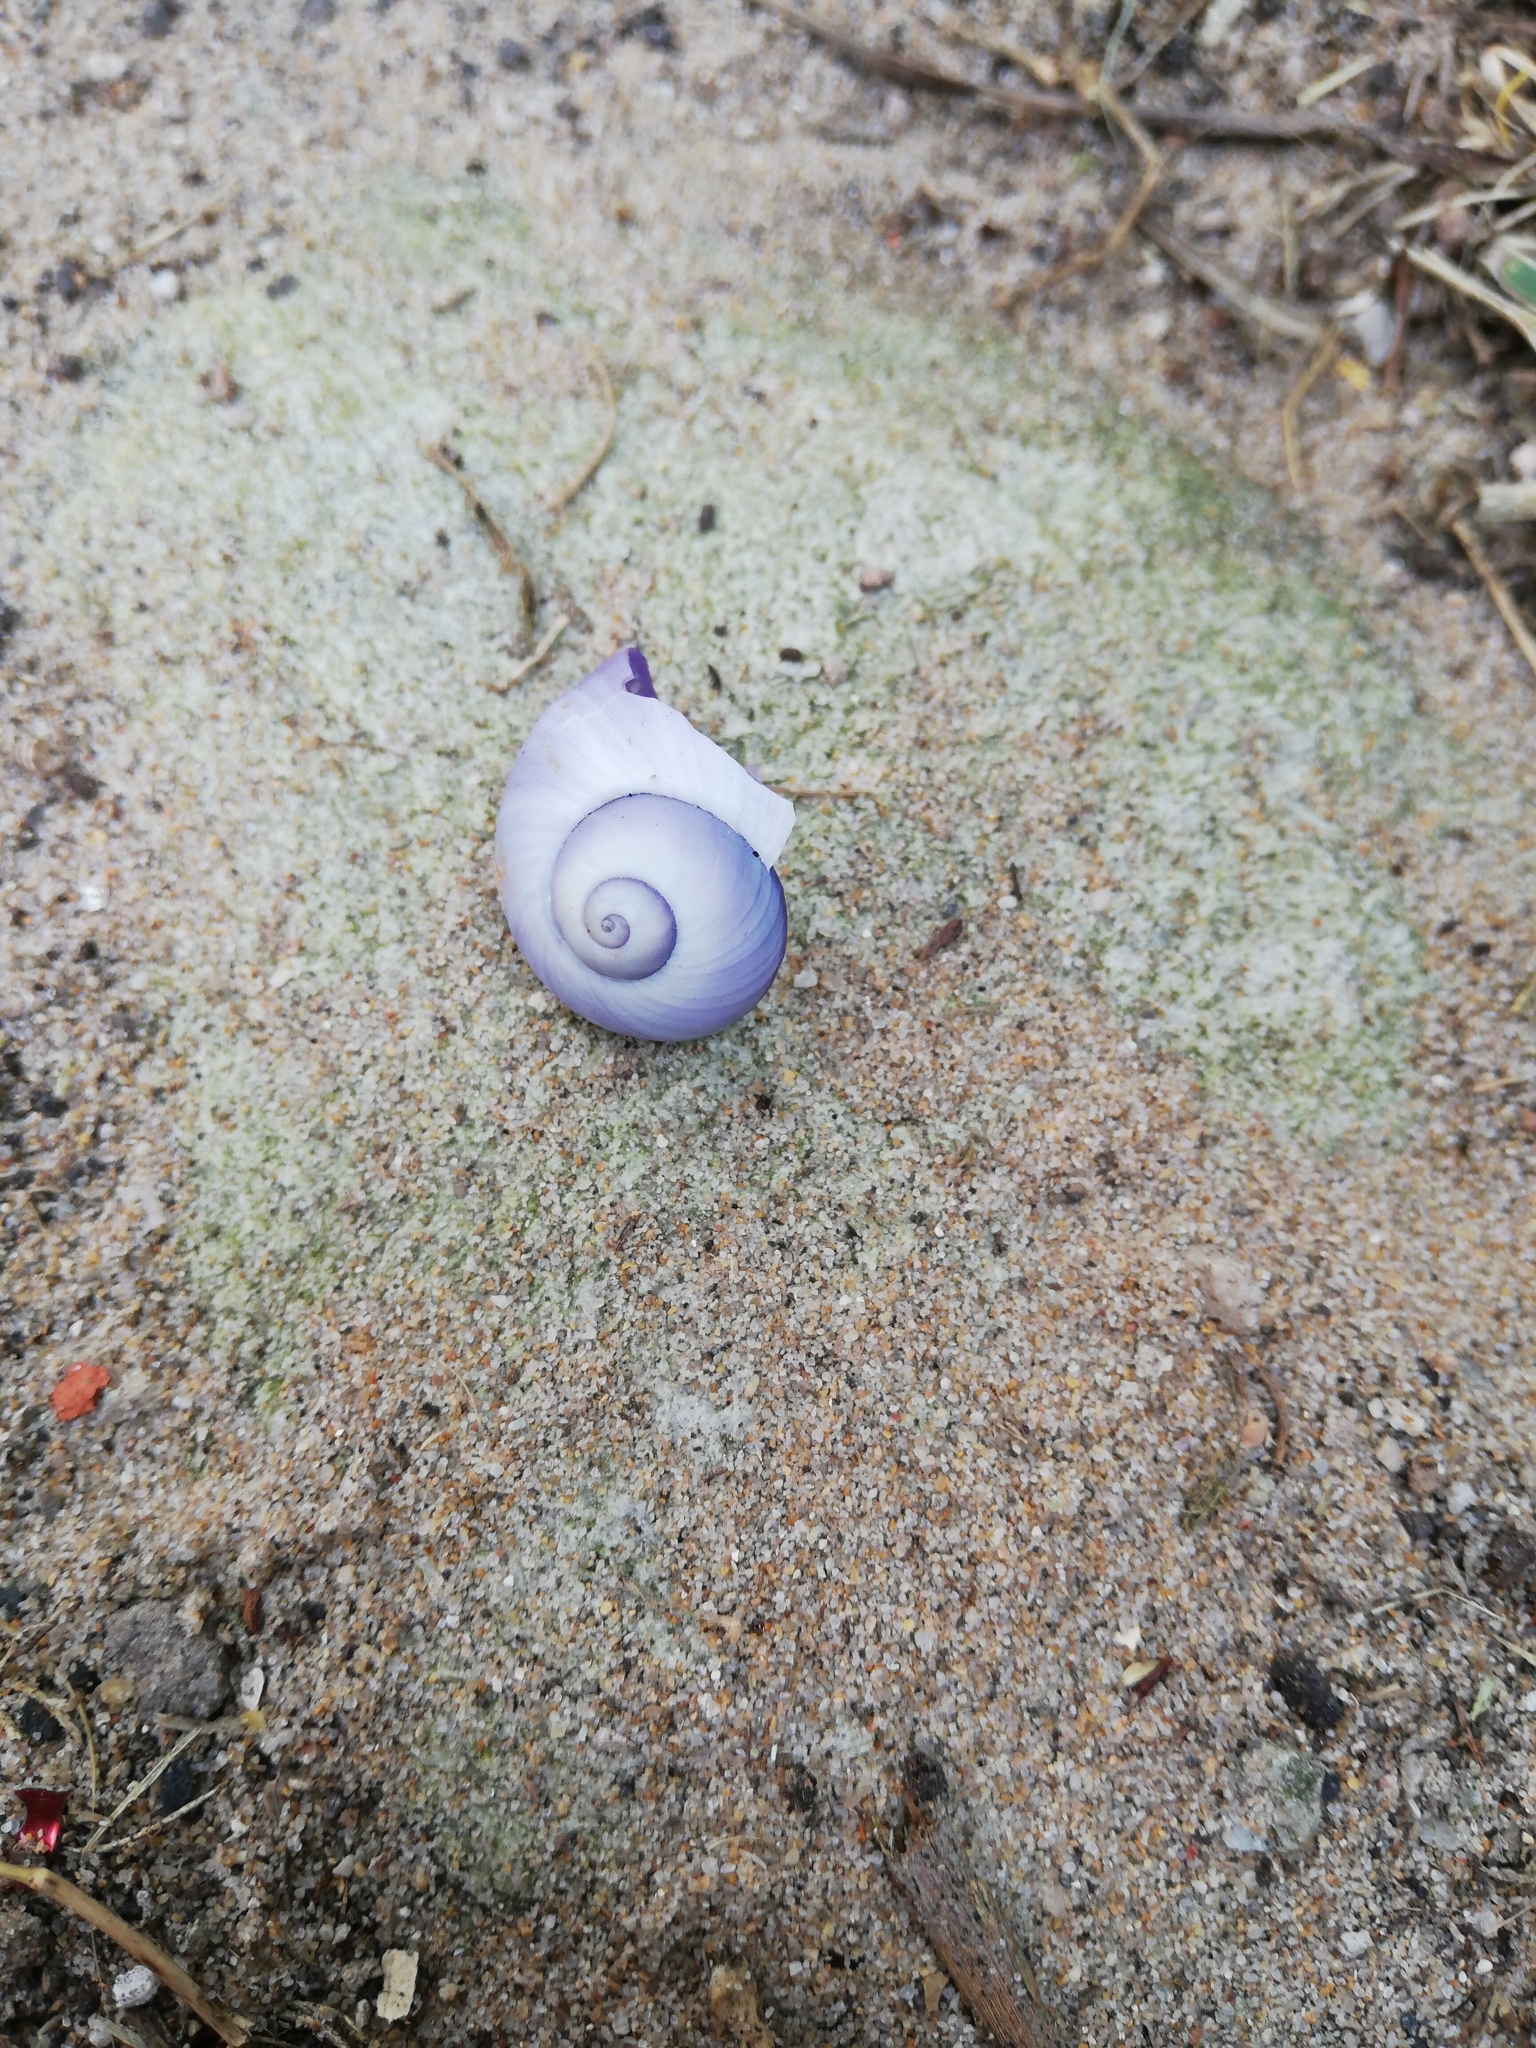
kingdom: Animalia
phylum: Mollusca
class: Gastropoda
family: Epitoniidae
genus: Janthina
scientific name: Janthina janthina
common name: Common janthina
